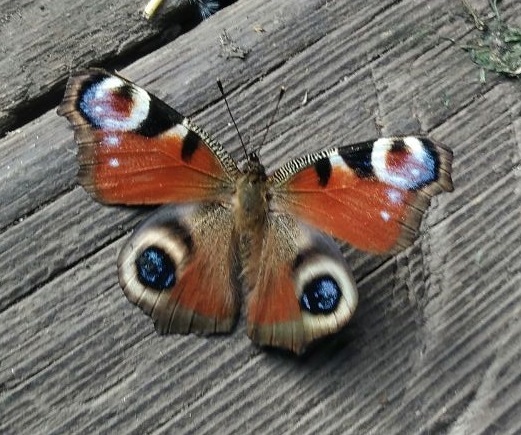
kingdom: Animalia
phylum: Arthropoda
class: Insecta
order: Lepidoptera
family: Nymphalidae
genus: Aglais
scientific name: Aglais io
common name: Peacock
